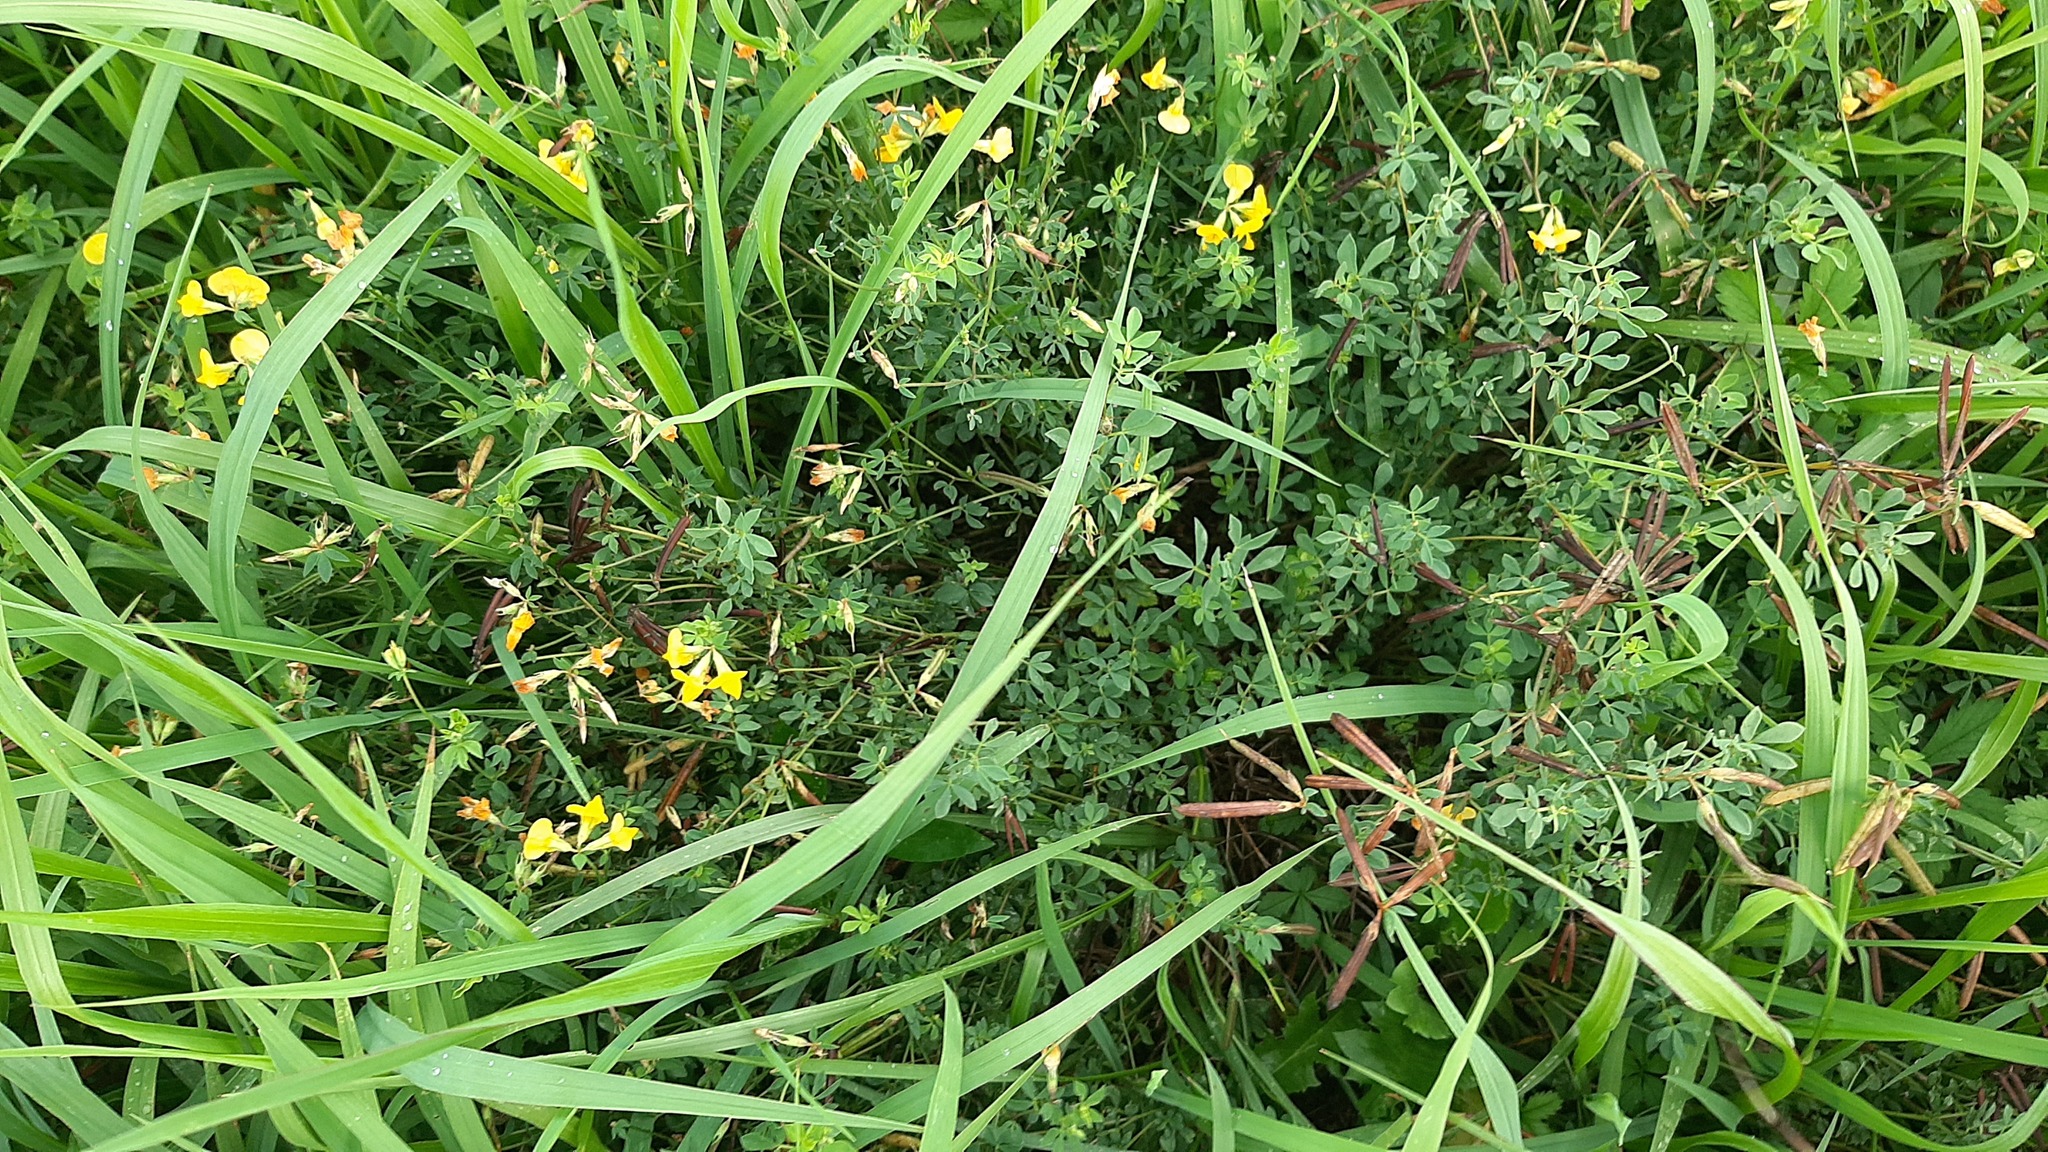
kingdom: Plantae
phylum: Tracheophyta
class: Magnoliopsida
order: Fabales
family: Fabaceae
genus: Lotus
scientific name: Lotus corniculatus
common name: Common bird's-foot-trefoil
